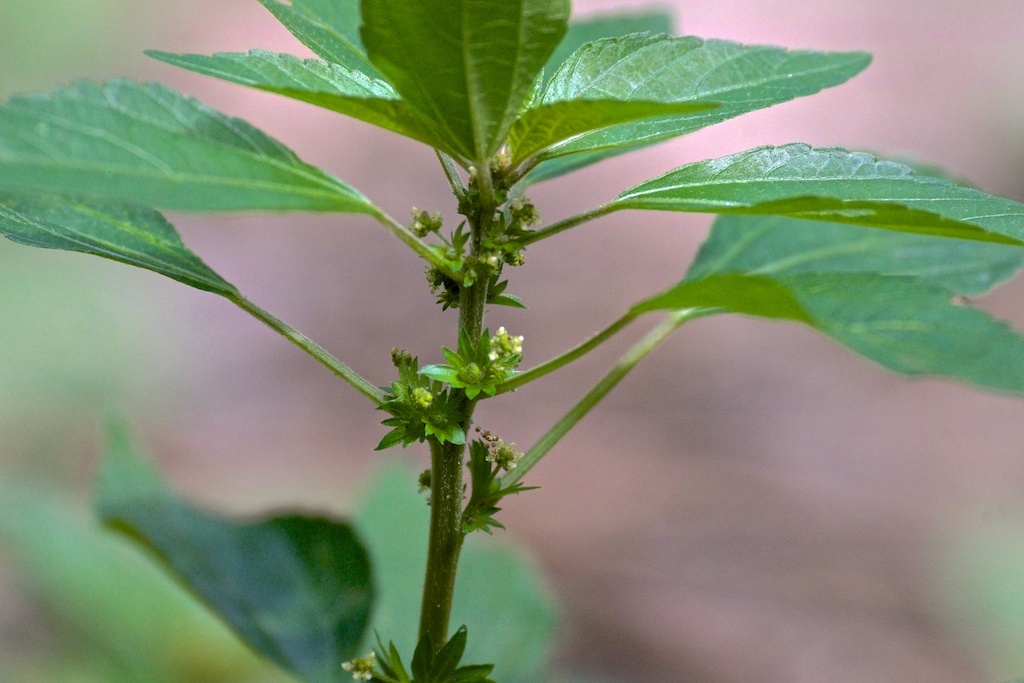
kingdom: Plantae
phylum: Tracheophyta
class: Magnoliopsida
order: Malpighiales
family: Euphorbiaceae
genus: Acalypha
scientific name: Acalypha rhomboidea
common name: Rhombic copperleaf
